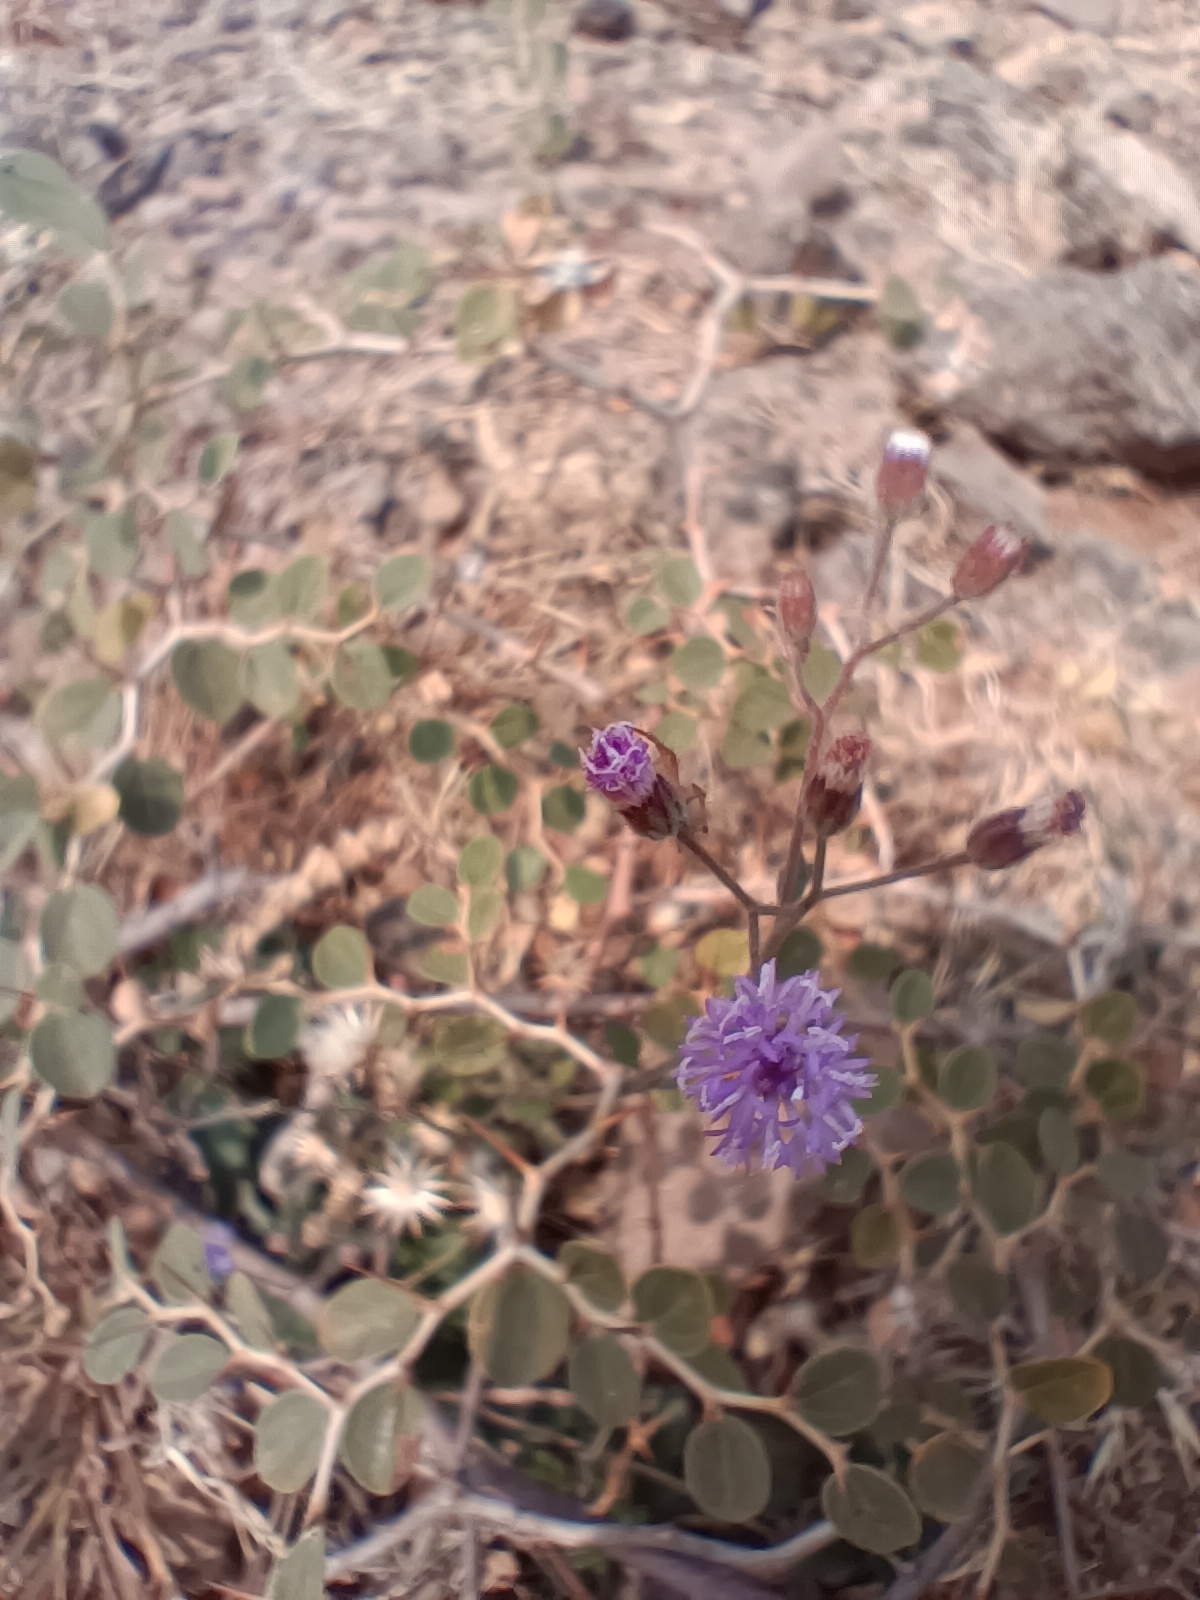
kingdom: Plantae
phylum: Tracheophyta
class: Magnoliopsida
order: Rosales
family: Rhamnaceae
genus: Ziziphus
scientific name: Ziziphus nummularia
